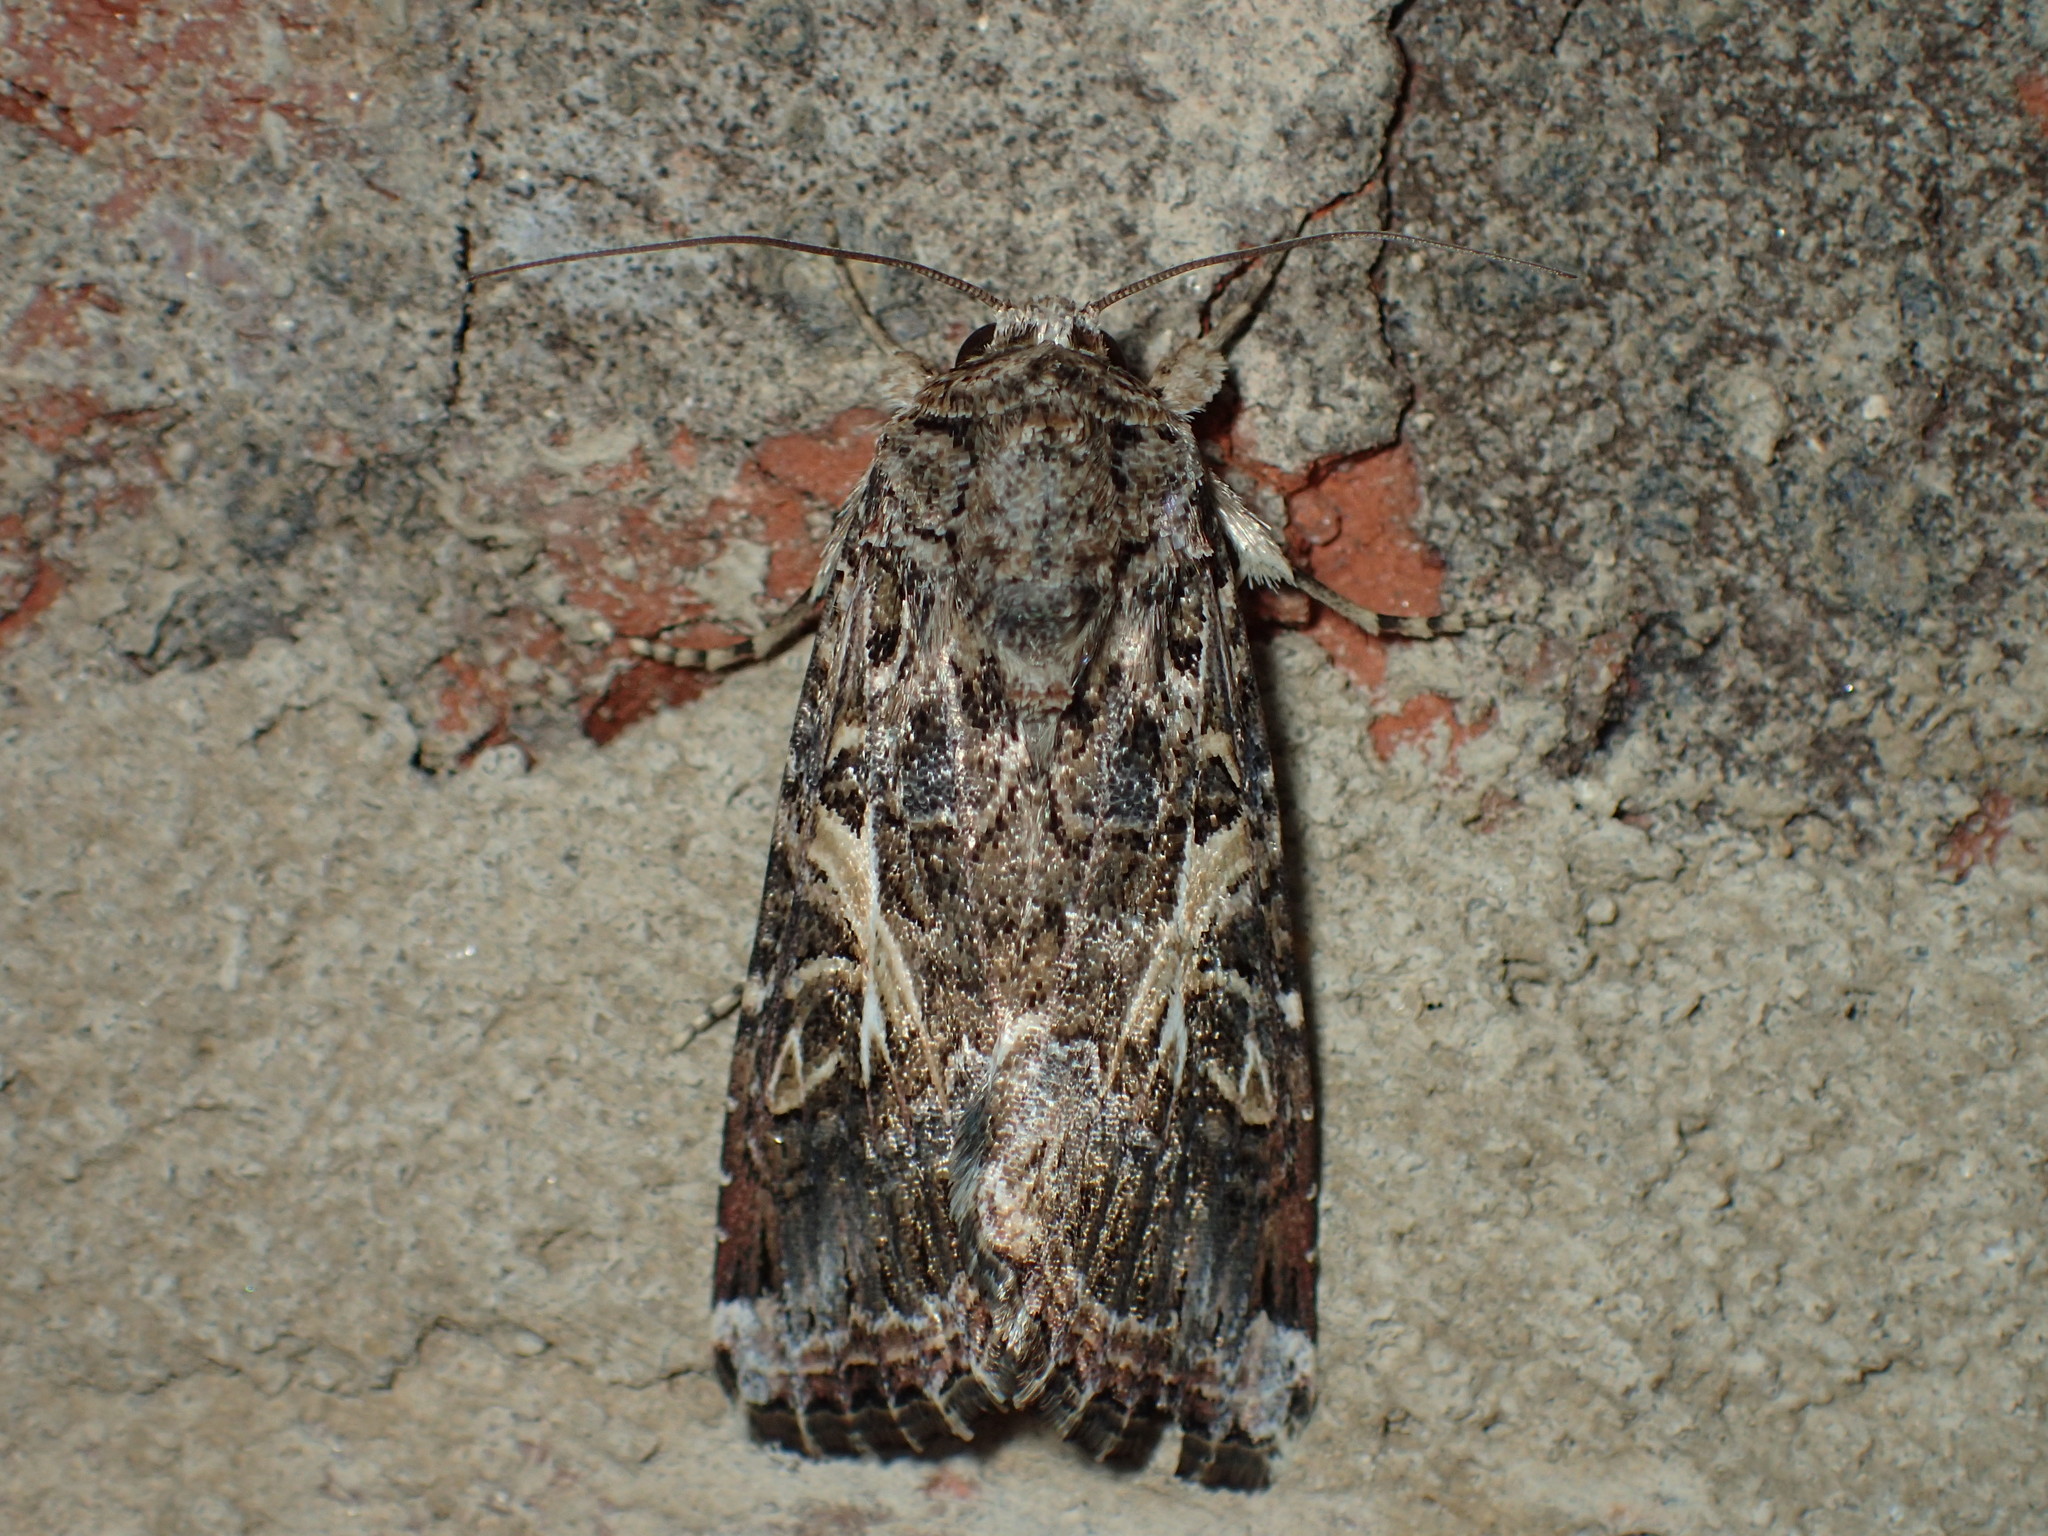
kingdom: Animalia
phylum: Arthropoda
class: Insecta
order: Lepidoptera
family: Noctuidae
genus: Spodoptera
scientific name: Spodoptera ornithogalli
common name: Yellow-striped armyworm
